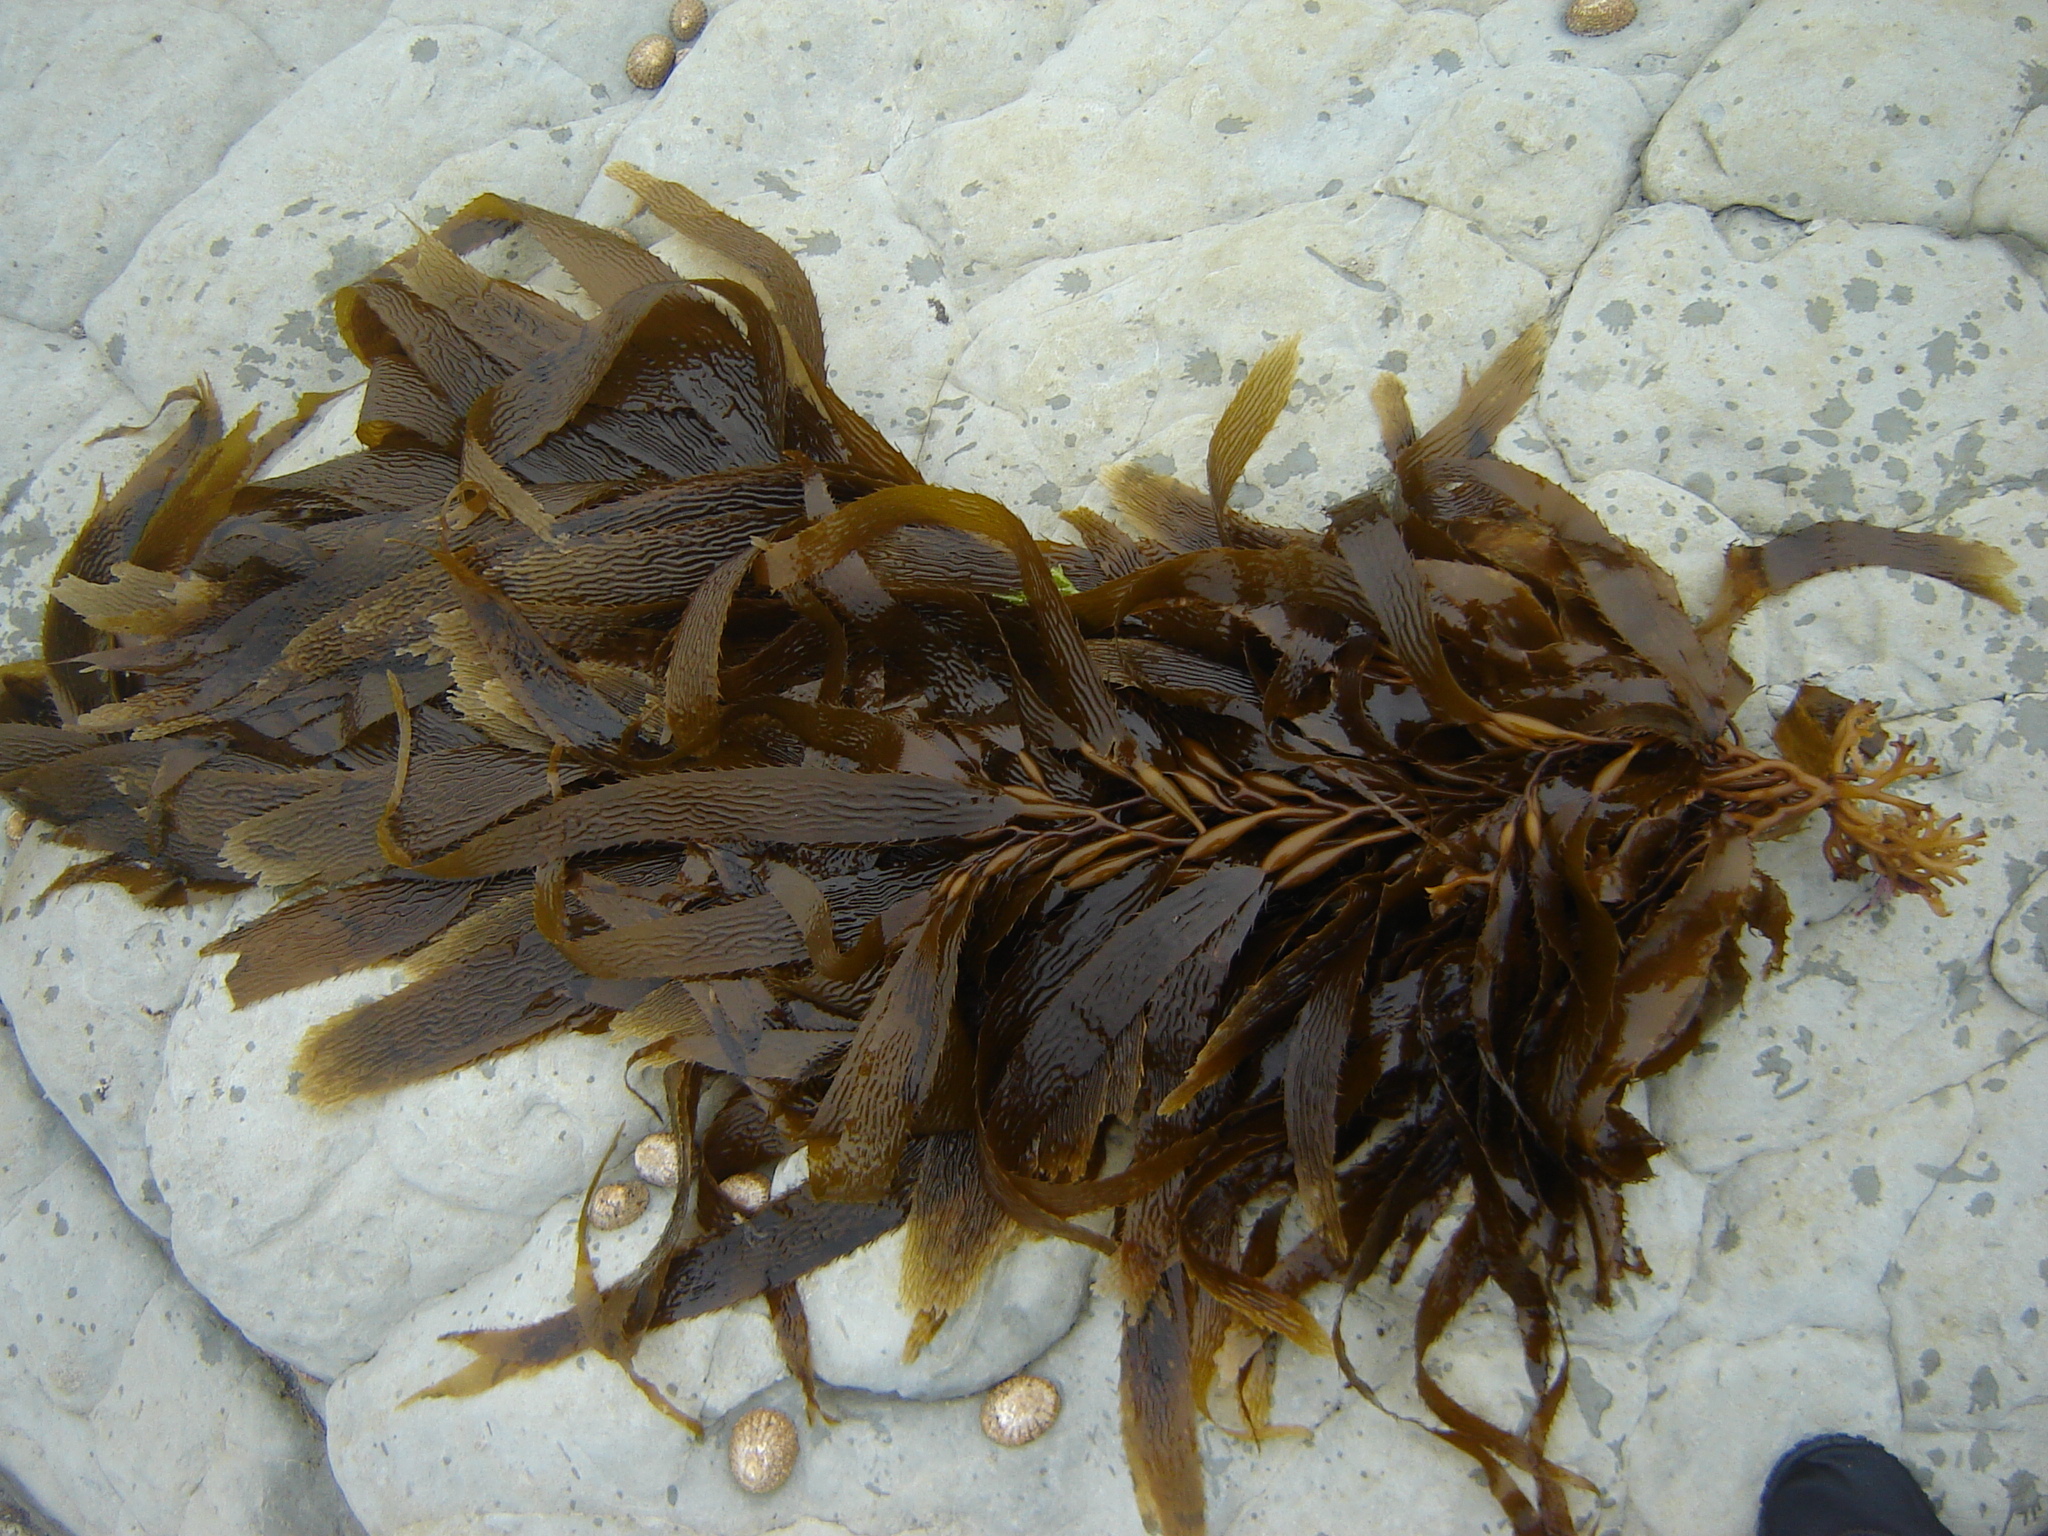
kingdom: Chromista
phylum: Ochrophyta
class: Phaeophyceae
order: Laminariales
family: Laminariaceae
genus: Macrocystis
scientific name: Macrocystis pyrifera
